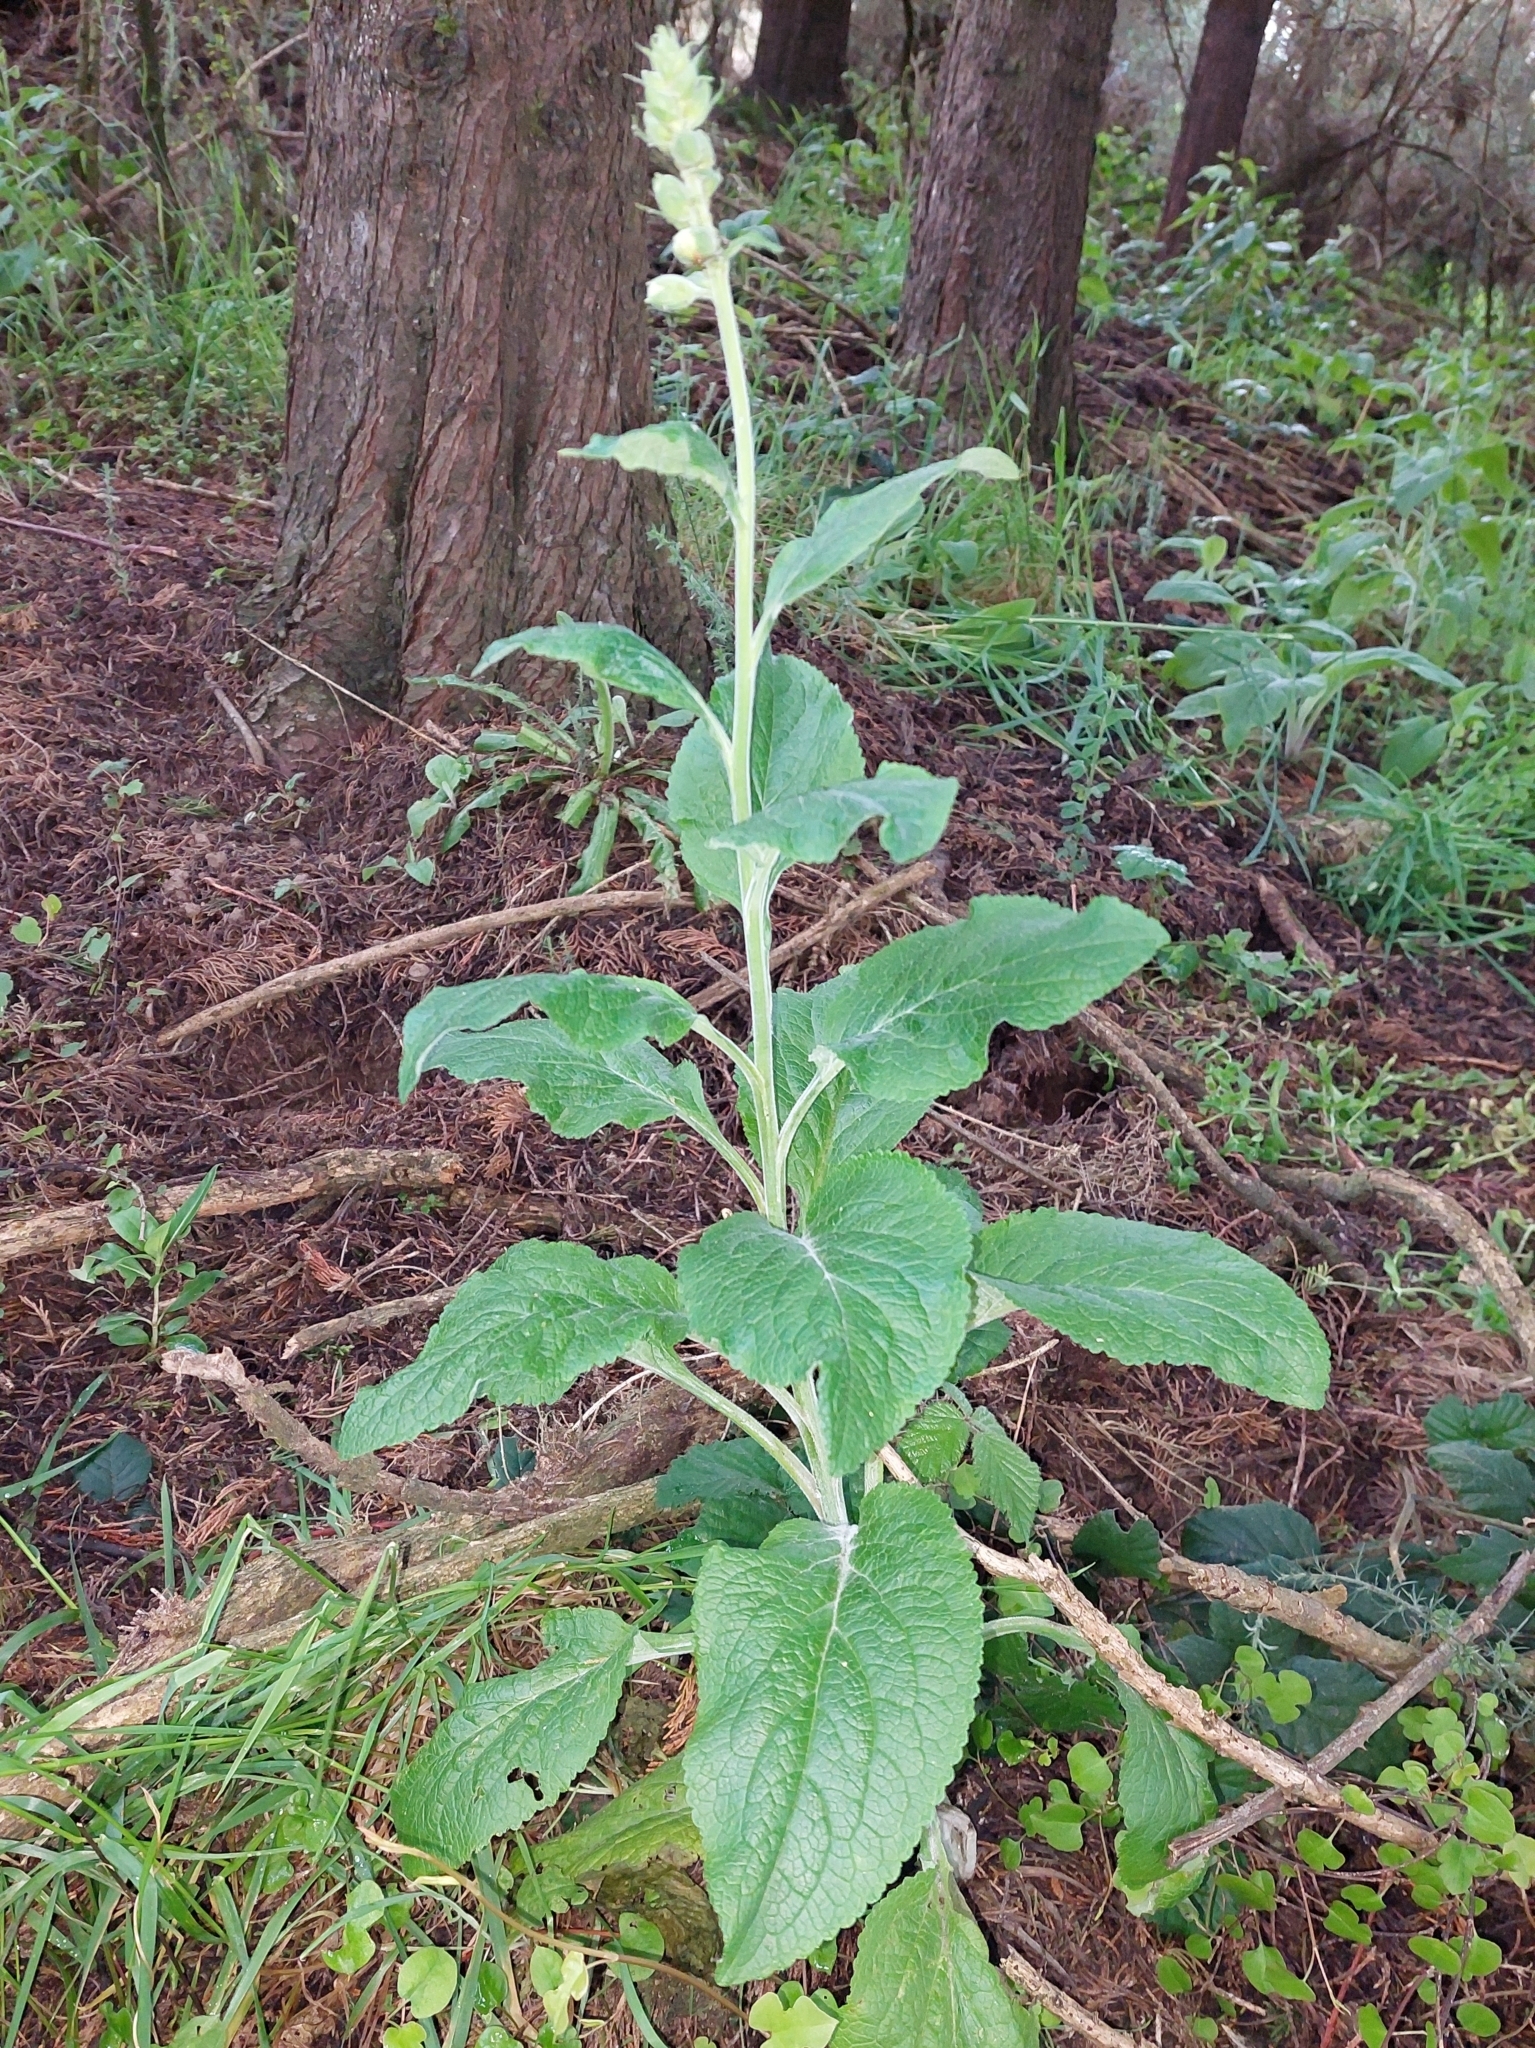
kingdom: Plantae
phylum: Tracheophyta
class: Magnoliopsida
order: Lamiales
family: Plantaginaceae
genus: Digitalis
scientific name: Digitalis purpurea
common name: Foxglove
